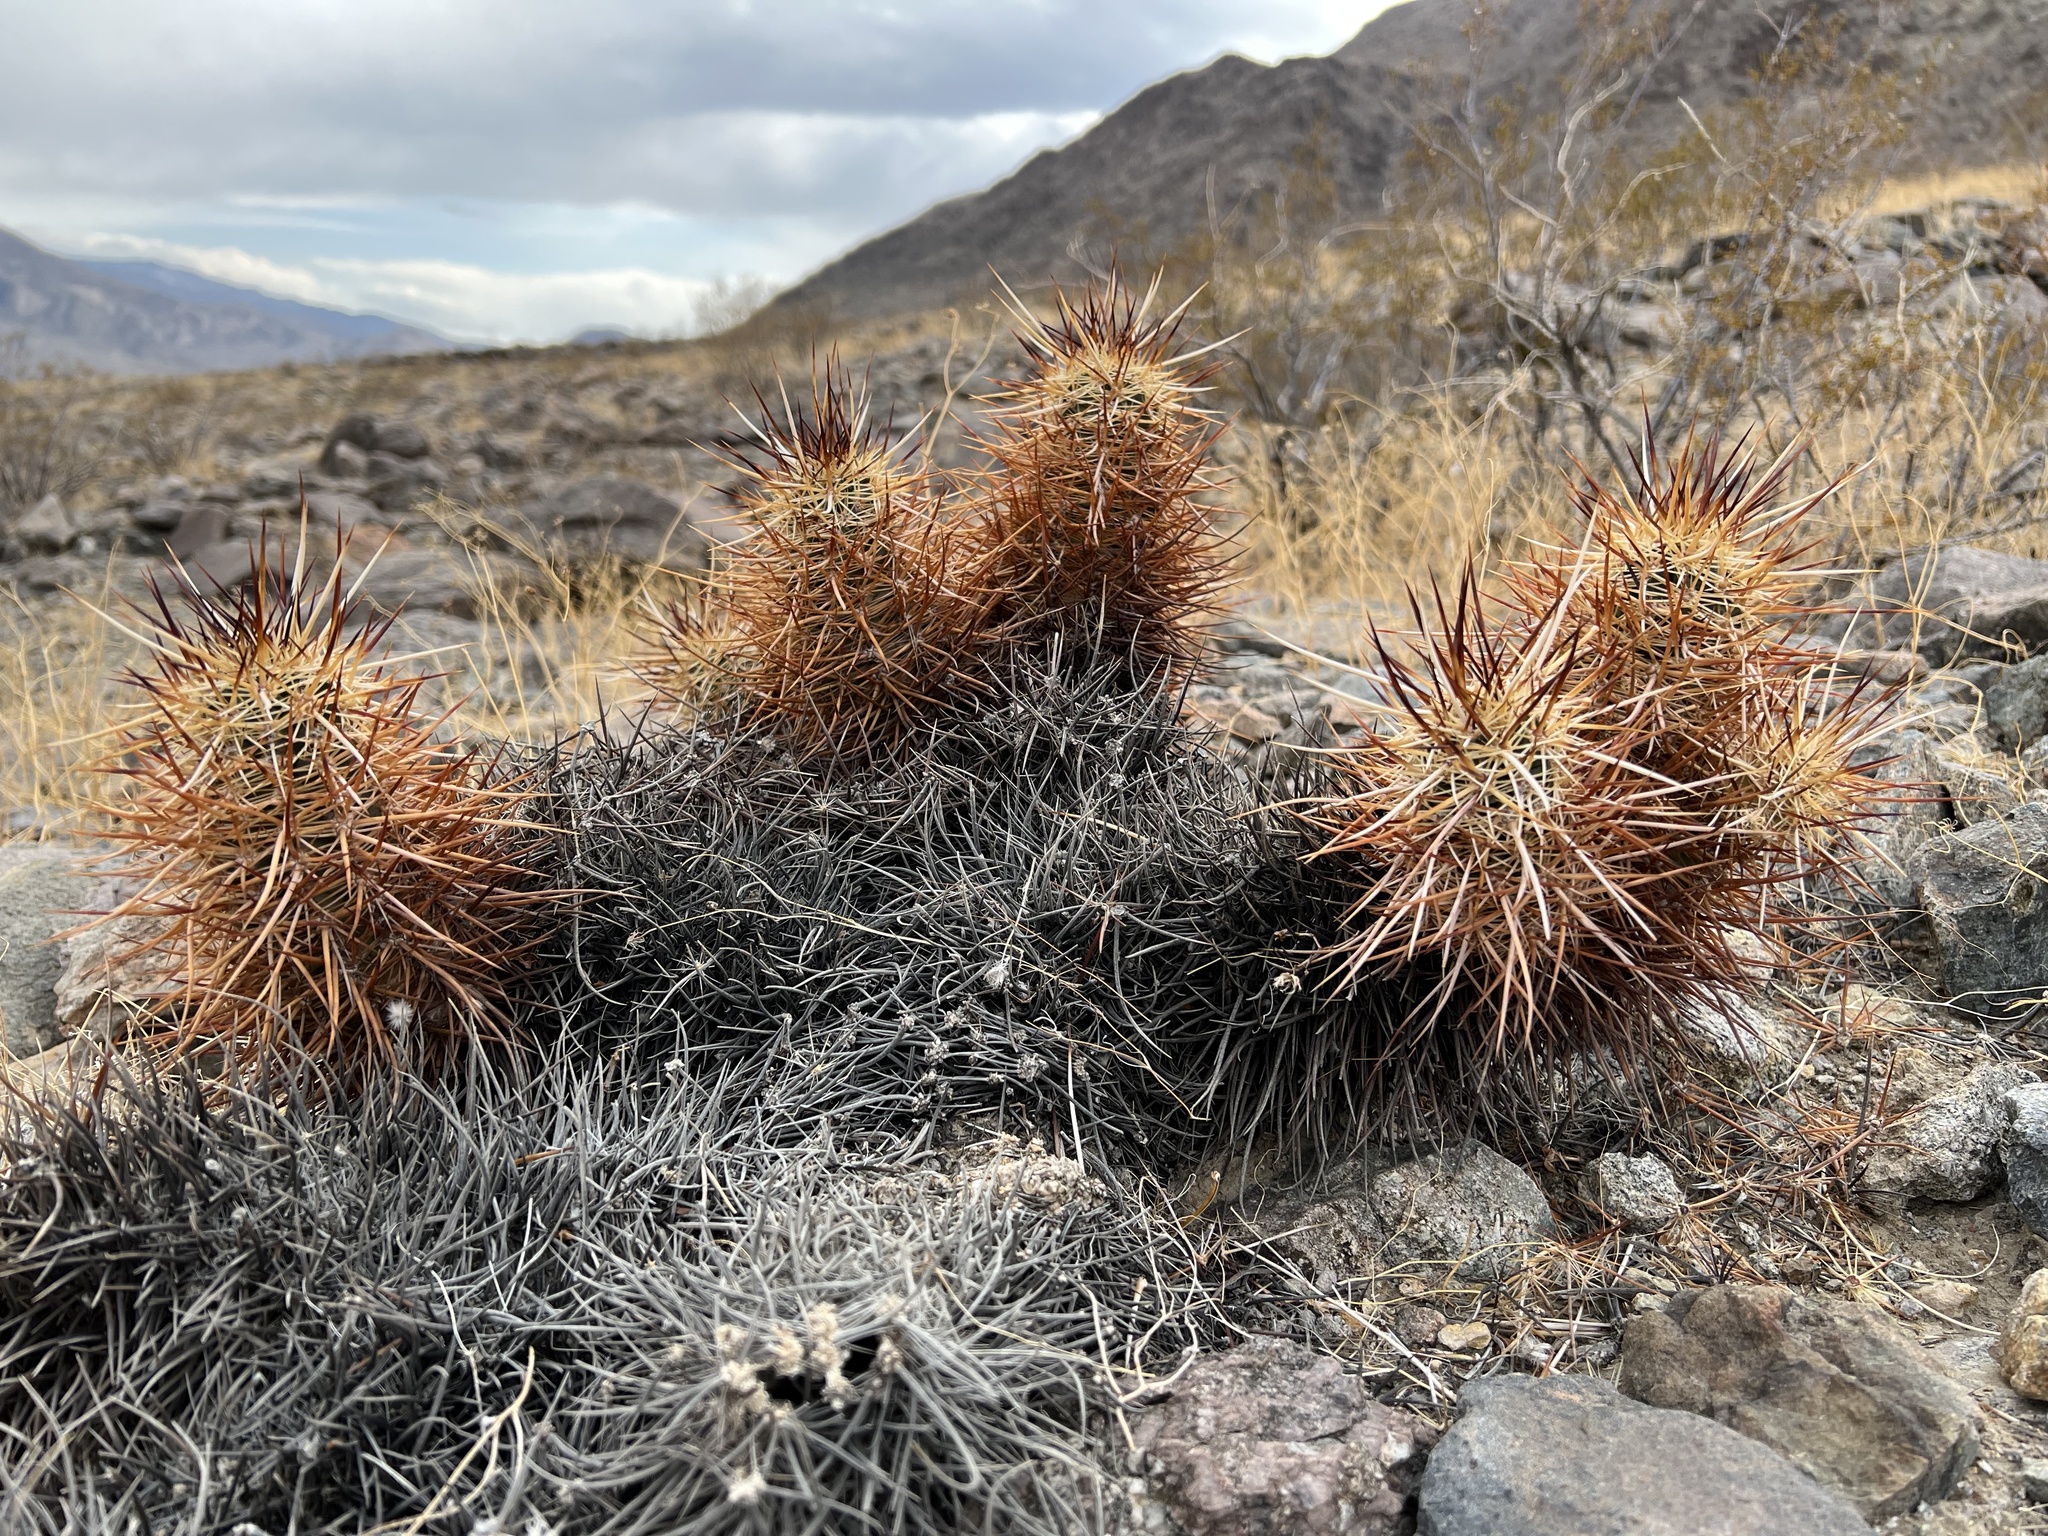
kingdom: Plantae
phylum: Tracheophyta
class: Magnoliopsida
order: Caryophyllales
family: Cactaceae
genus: Echinocereus
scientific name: Echinocereus engelmannii
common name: Engelmann's hedgehog cactus
